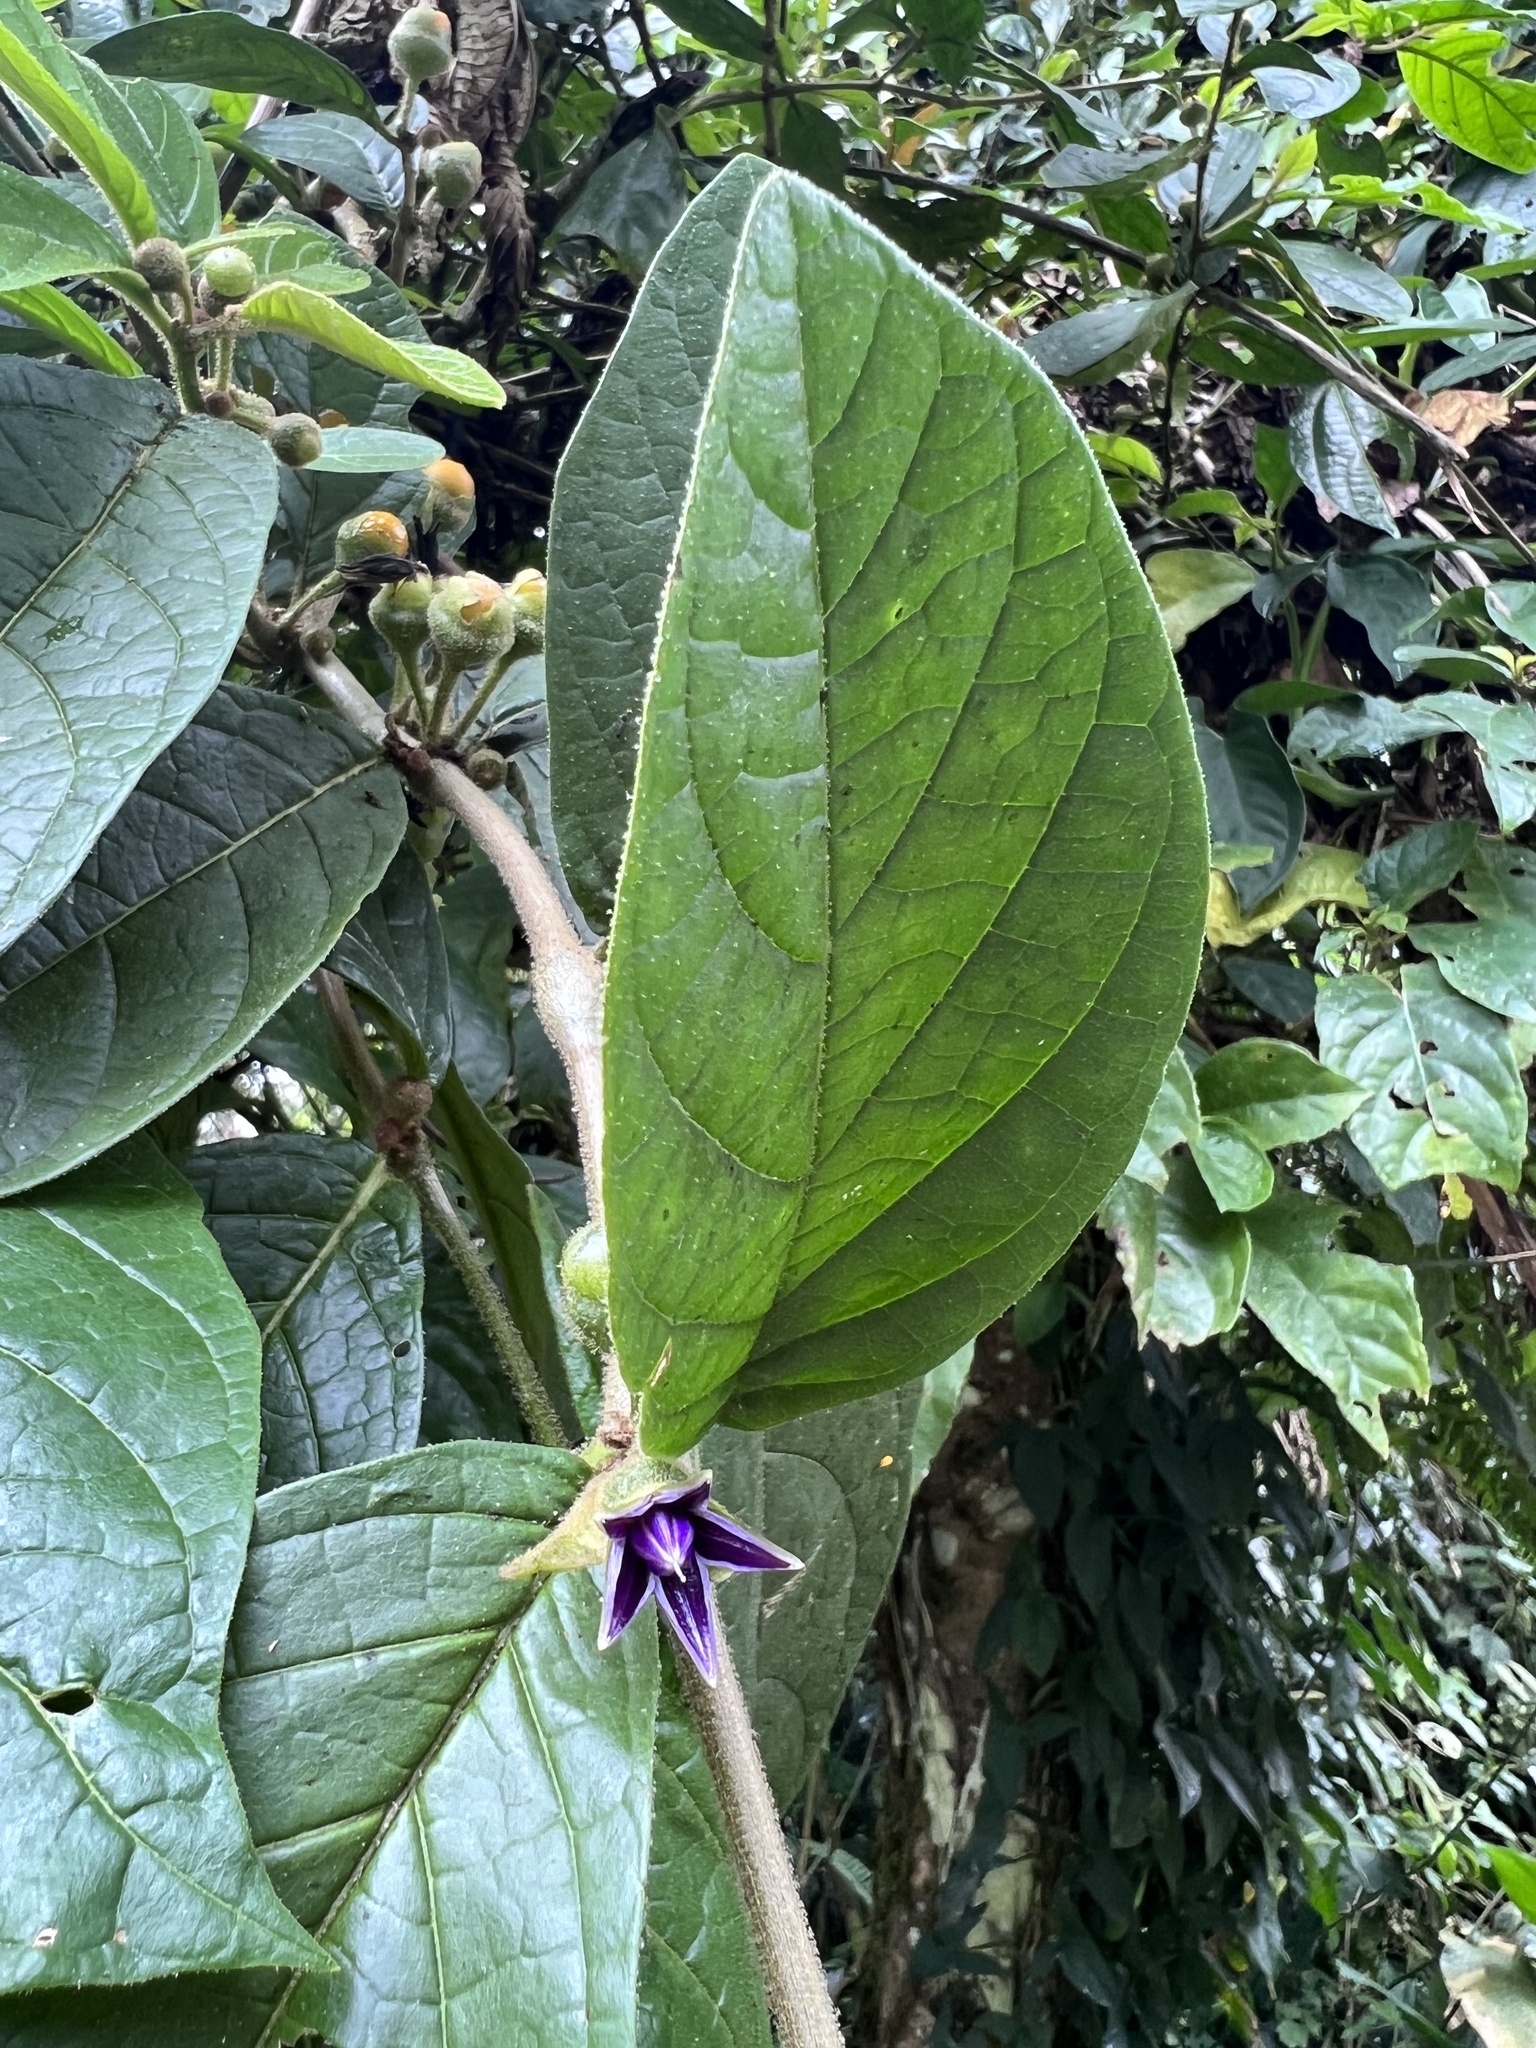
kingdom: Plantae
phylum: Tracheophyta
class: Magnoliopsida
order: Solanales
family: Solanaceae
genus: Lycianthes
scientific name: Lycianthes sanctaeclarae
